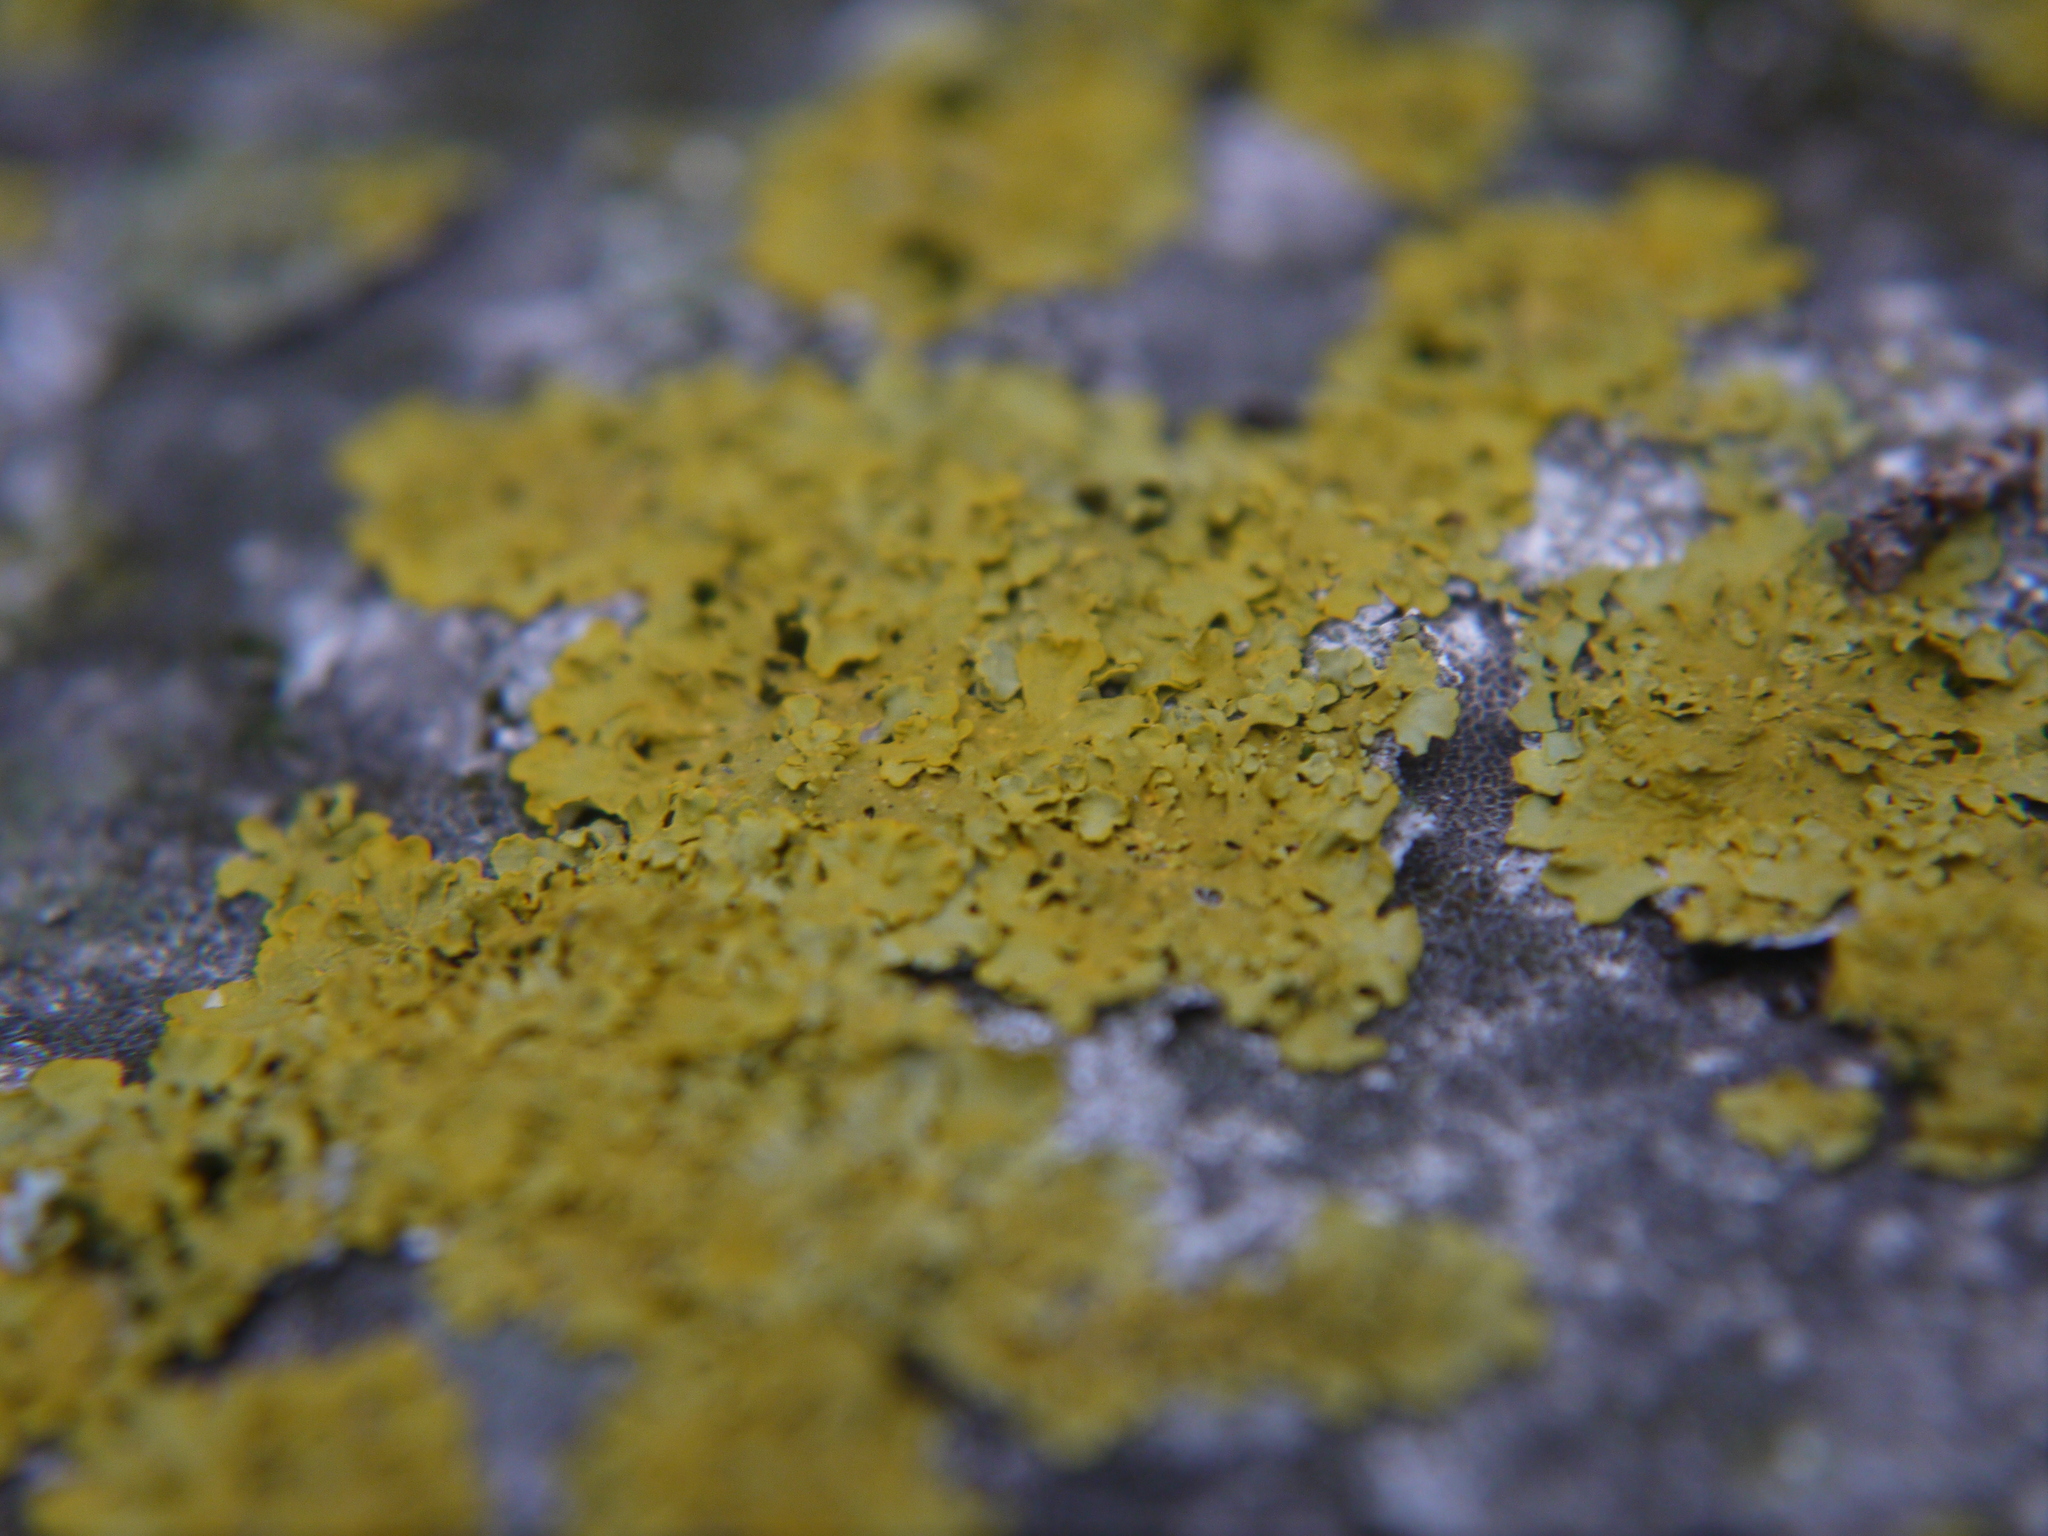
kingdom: Fungi
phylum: Ascomycota
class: Lecanoromycetes
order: Teloschistales
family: Teloschistaceae
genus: Xanthoria
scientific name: Xanthoria parietina
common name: Common orange lichen
